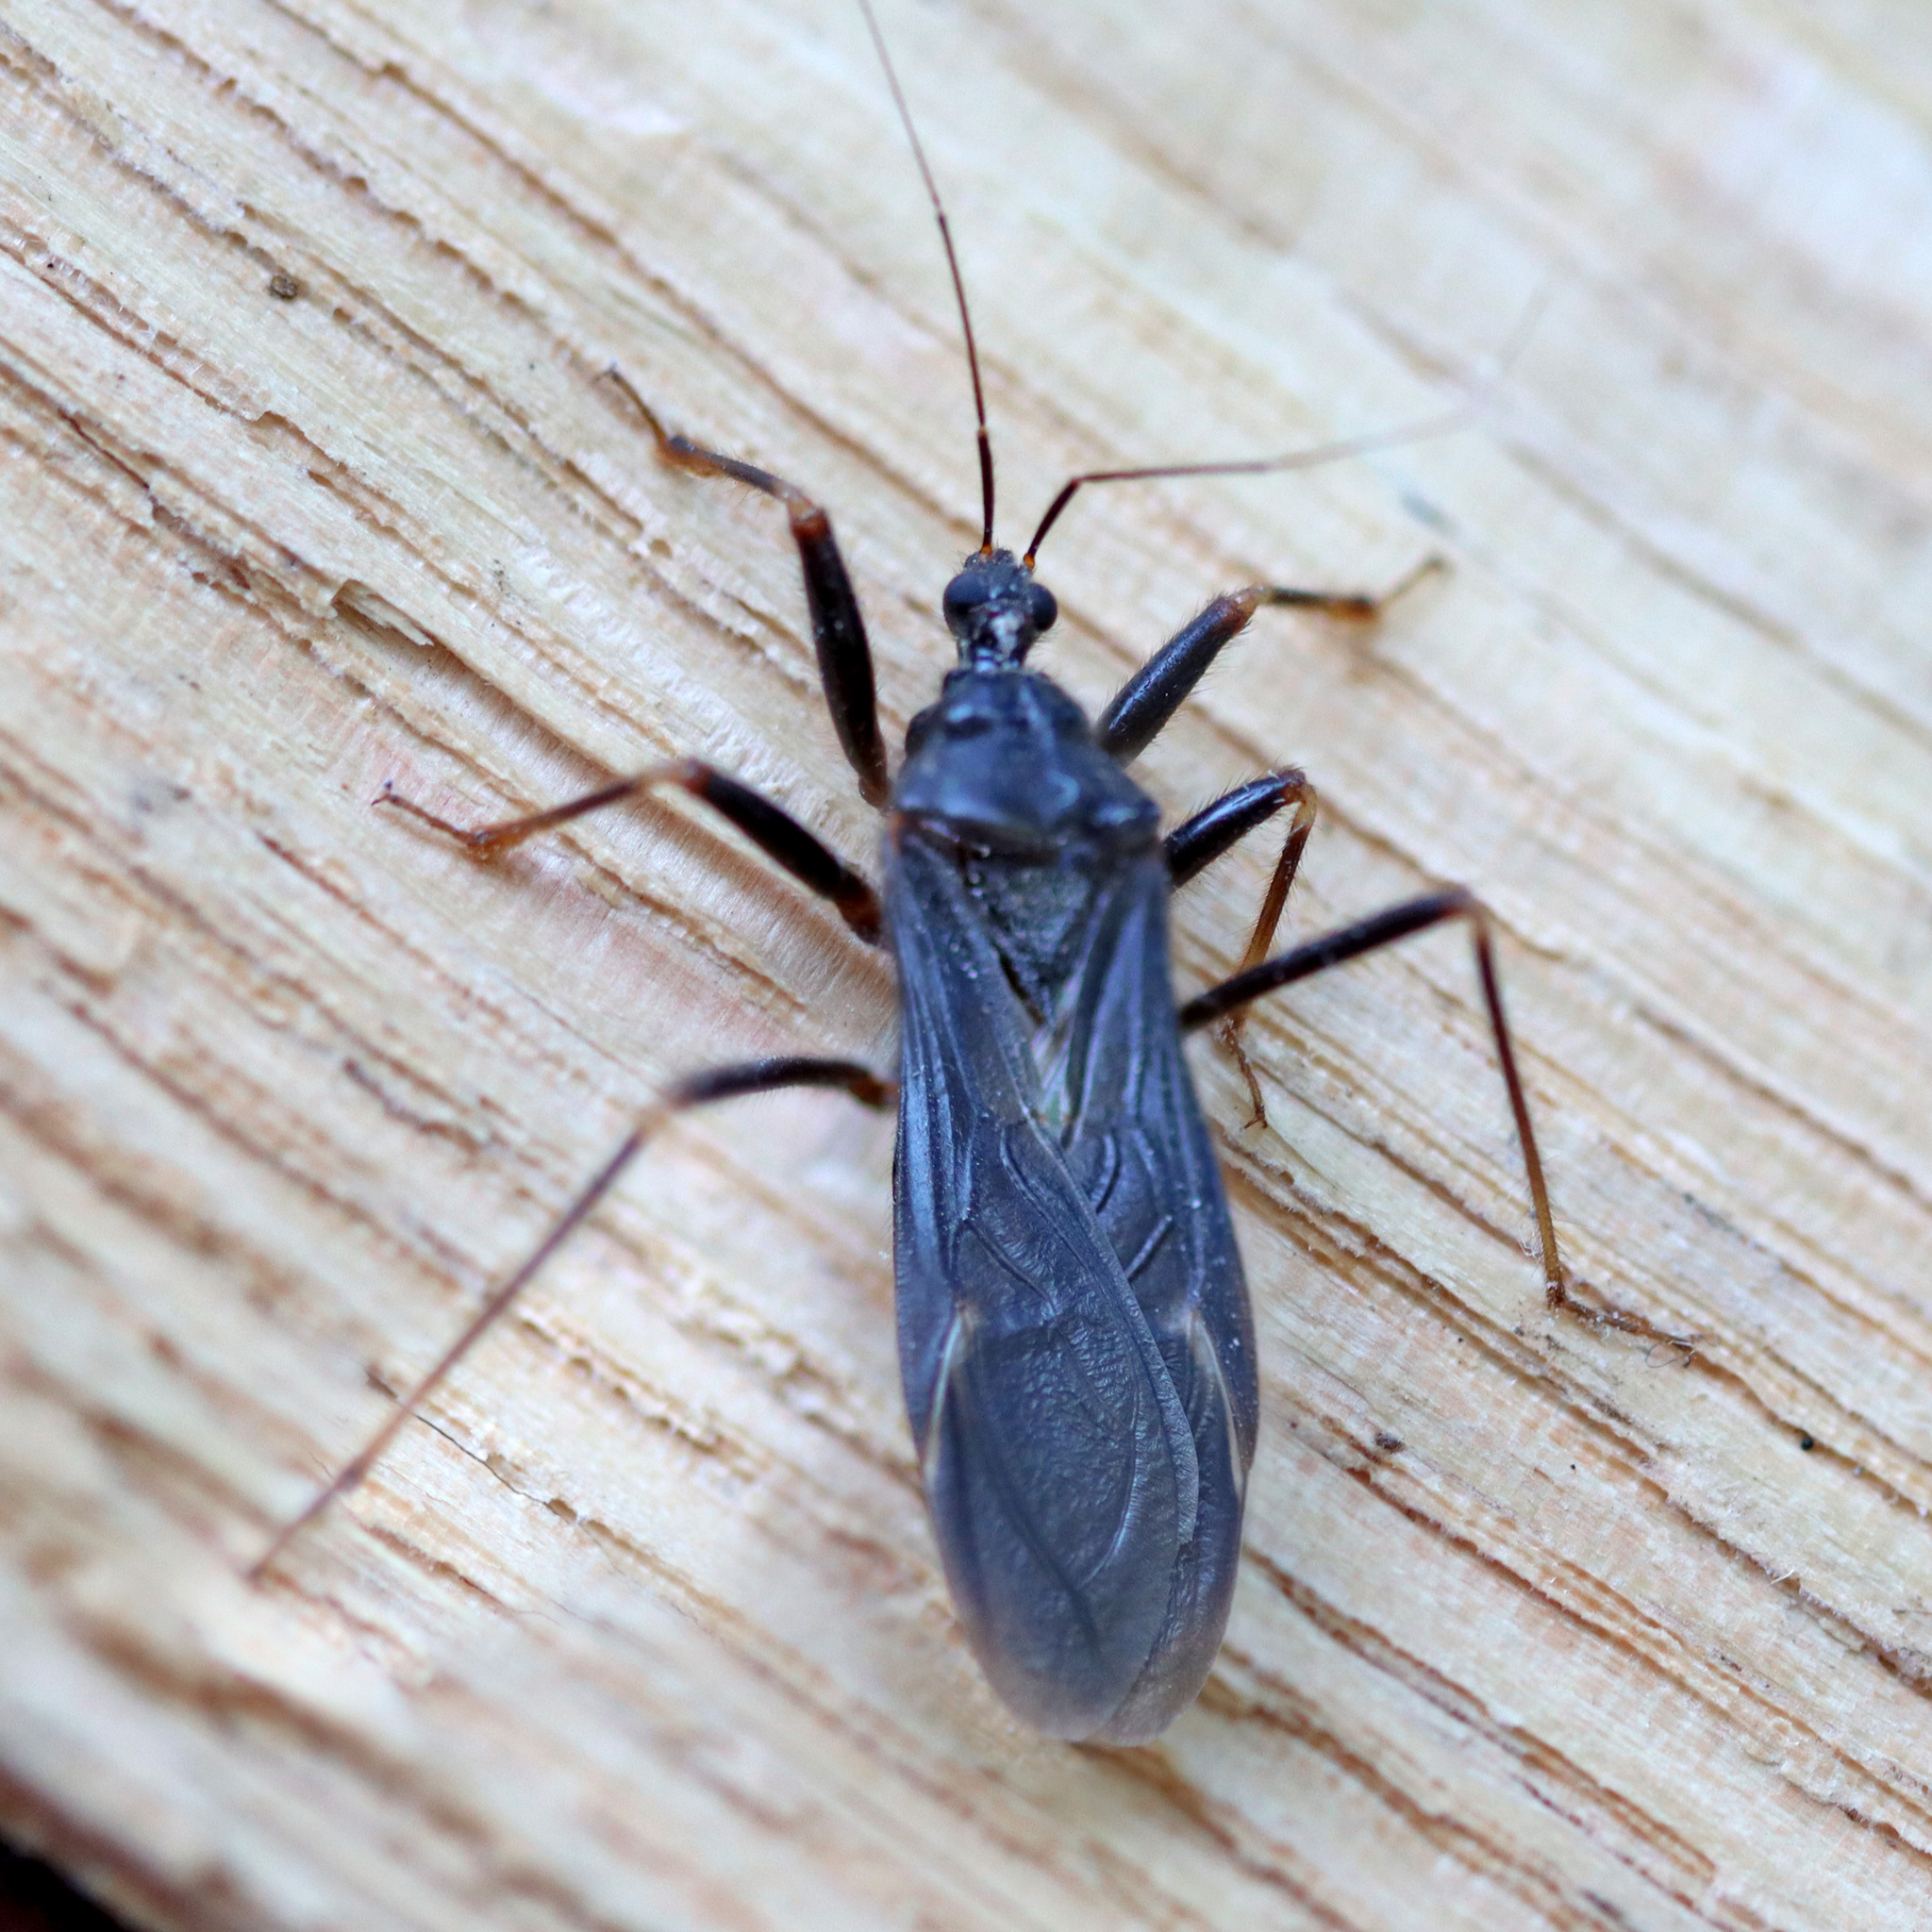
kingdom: Animalia
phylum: Arthropoda
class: Insecta
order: Hemiptera
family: Reduviidae
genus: Reduvius
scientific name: Reduvius personatus
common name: Masked hunter
